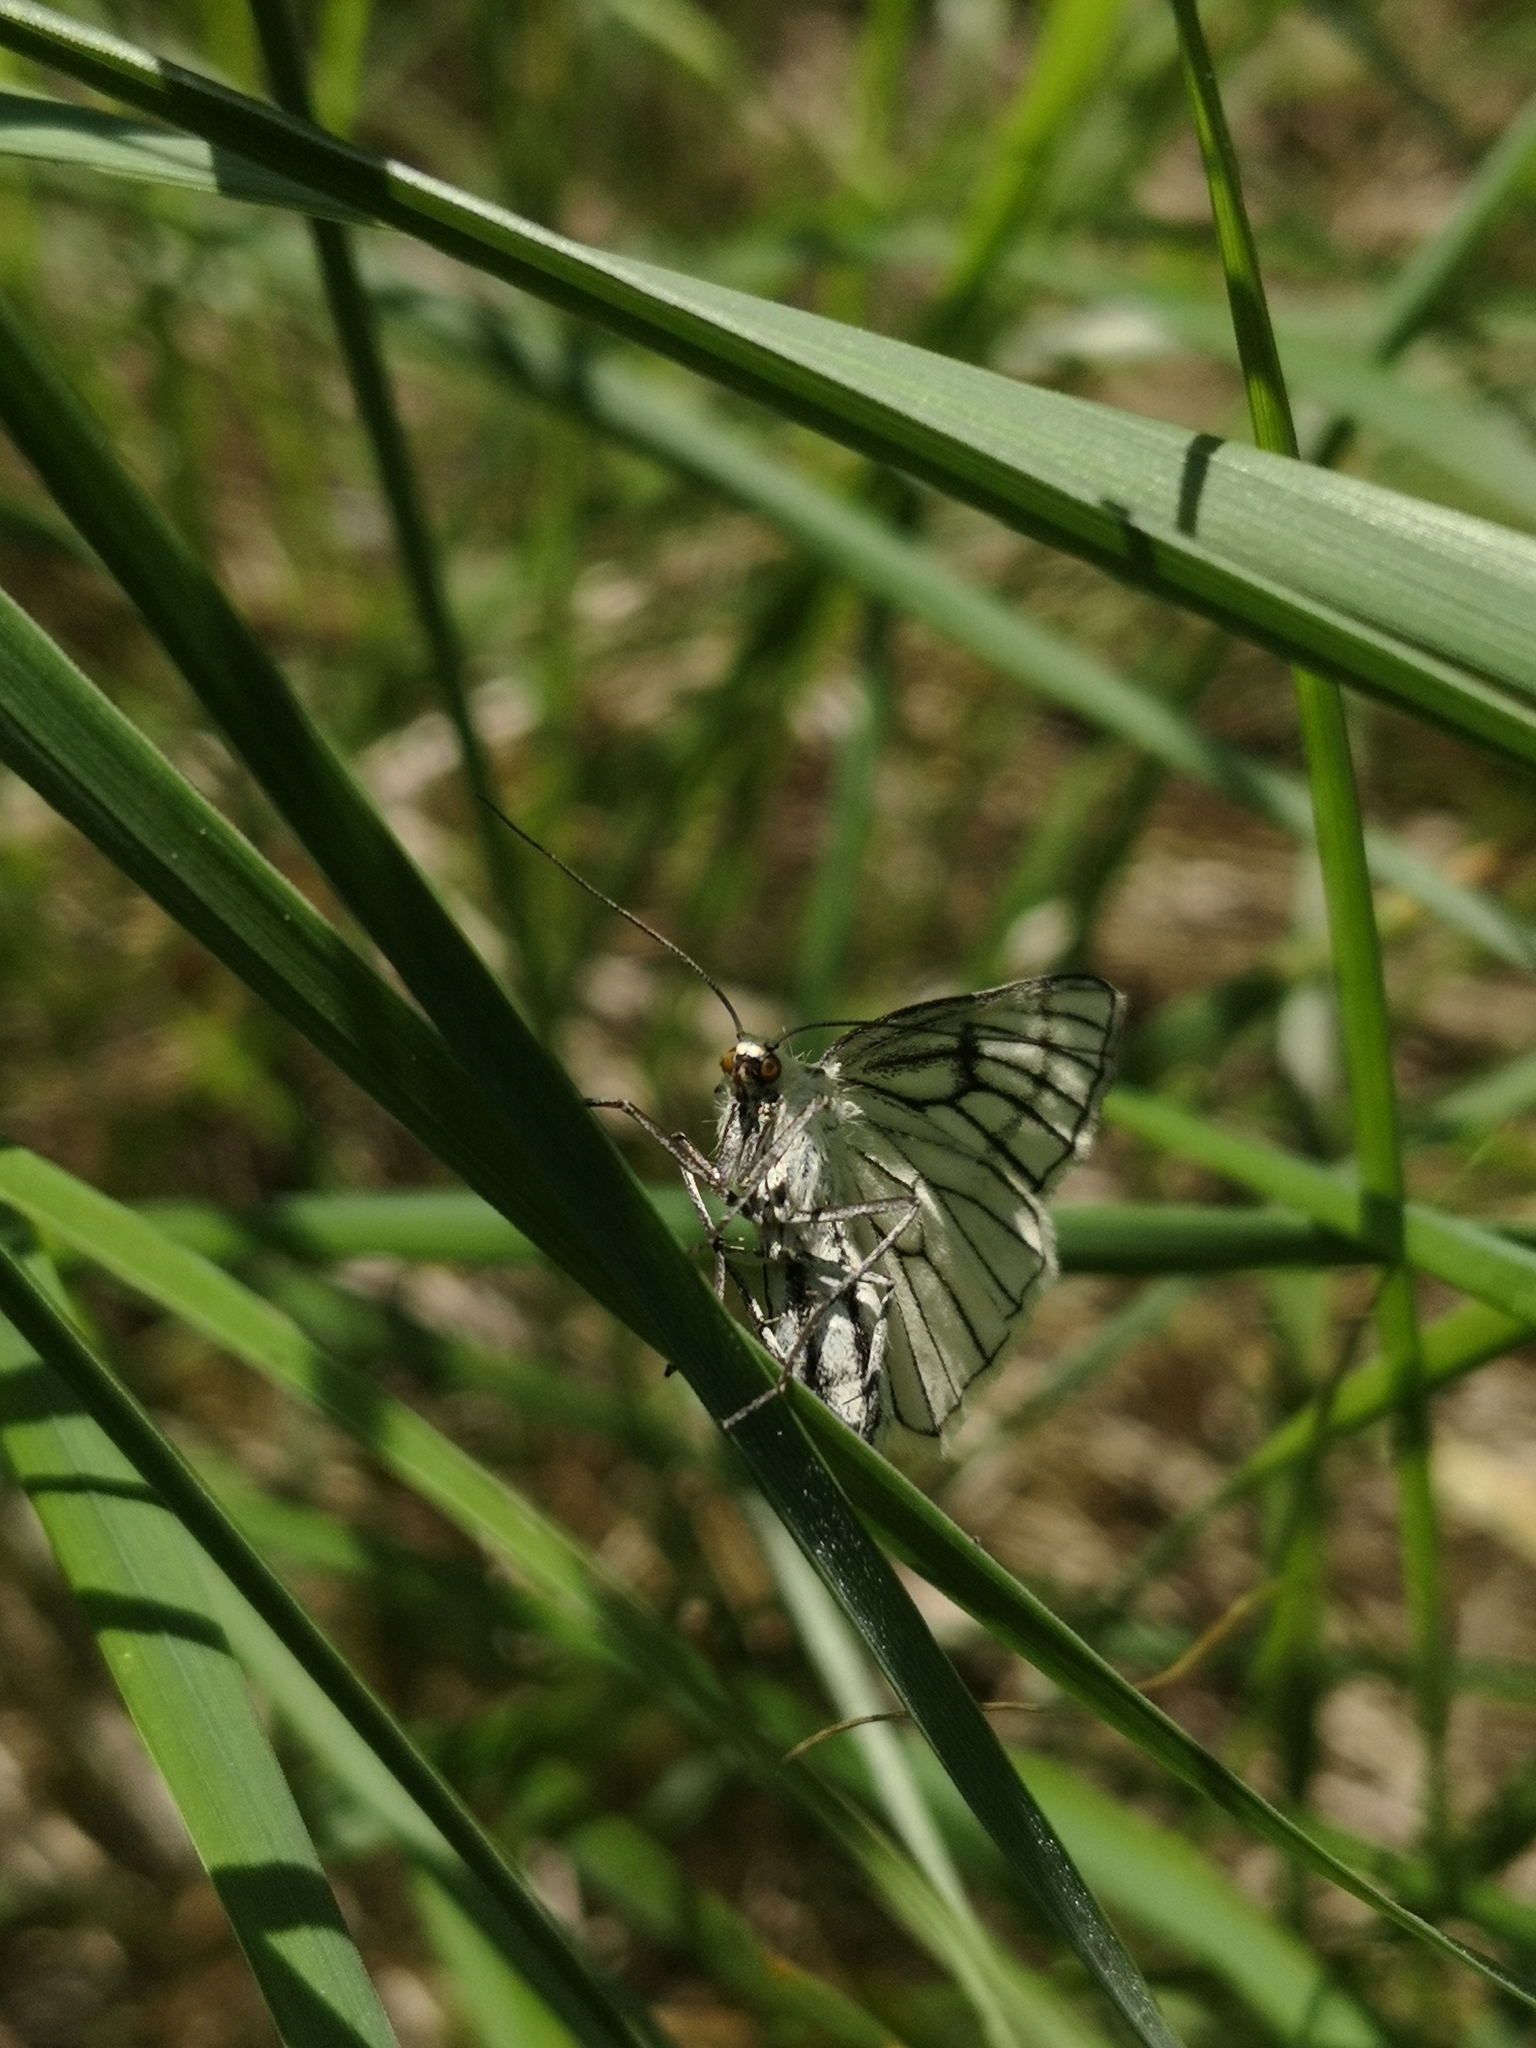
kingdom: Animalia
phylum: Arthropoda
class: Insecta
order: Lepidoptera
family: Geometridae
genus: Siona
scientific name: Siona lineata
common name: Black-veined moth
